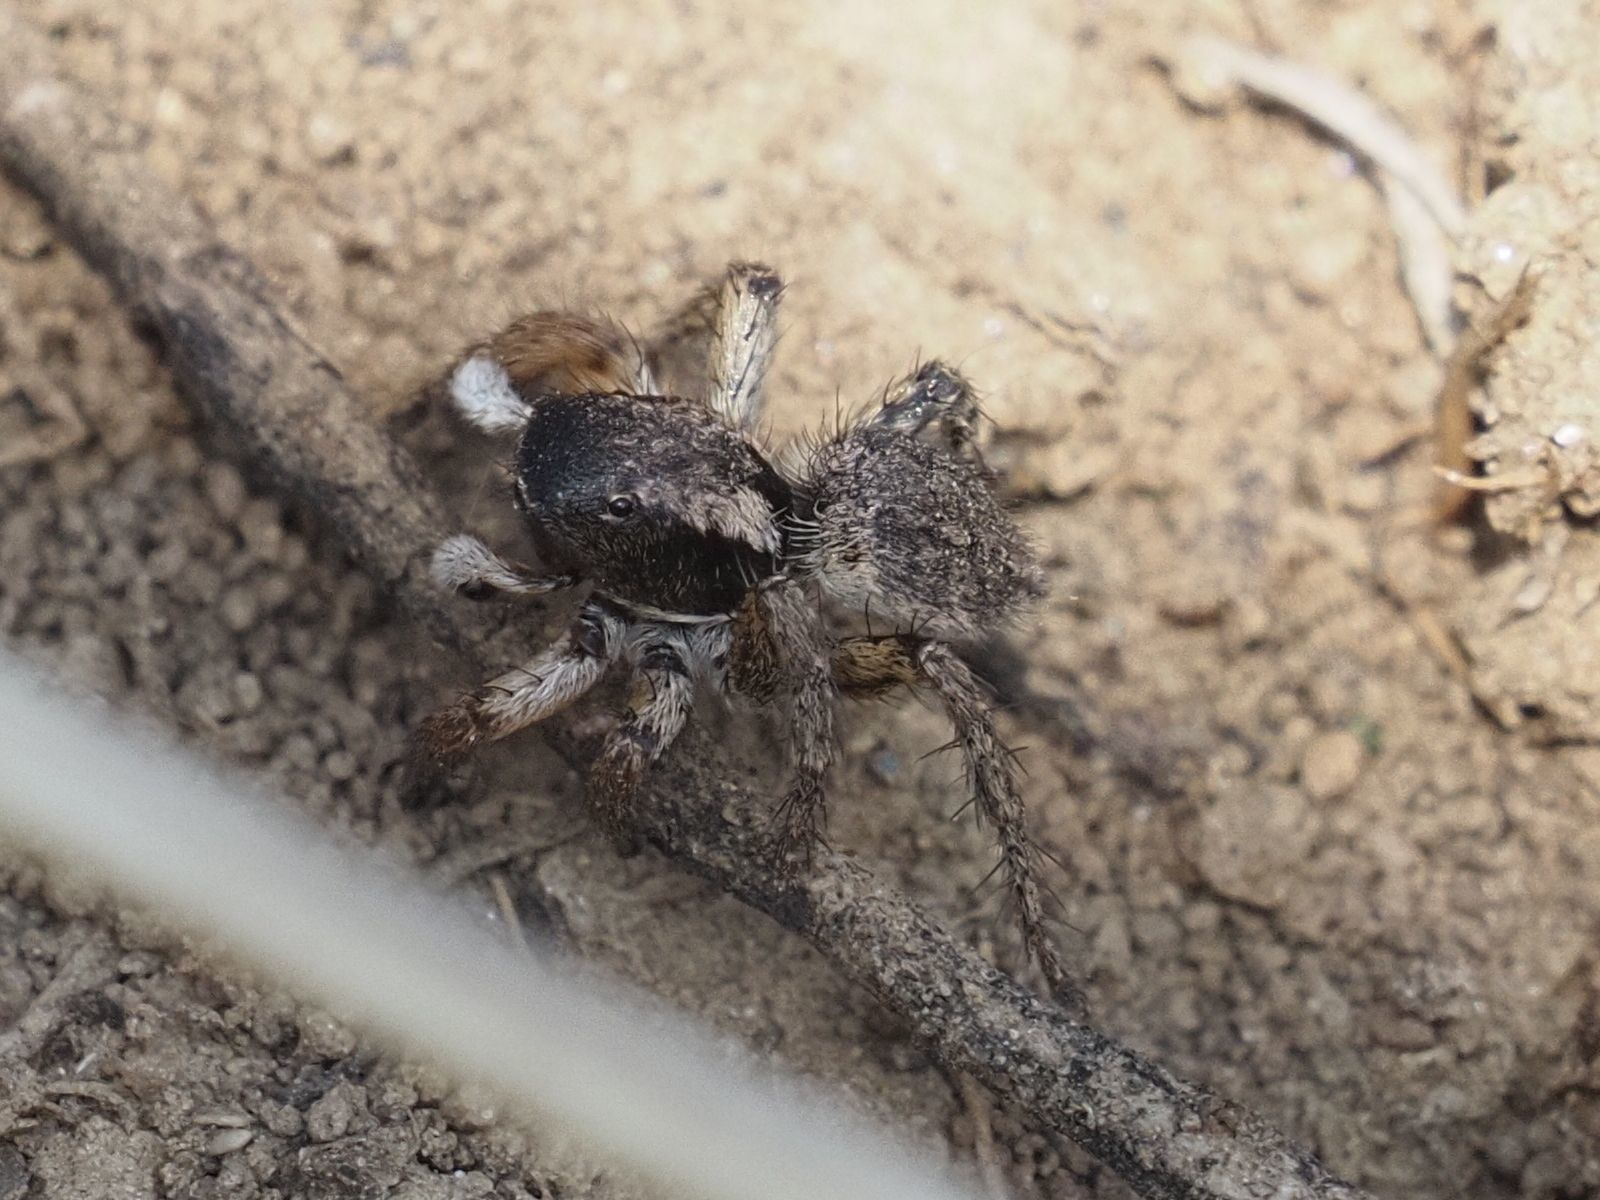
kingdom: Animalia
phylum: Arthropoda
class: Arachnida
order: Araneae
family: Salticidae
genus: Asianellus
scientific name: Asianellus festivus
